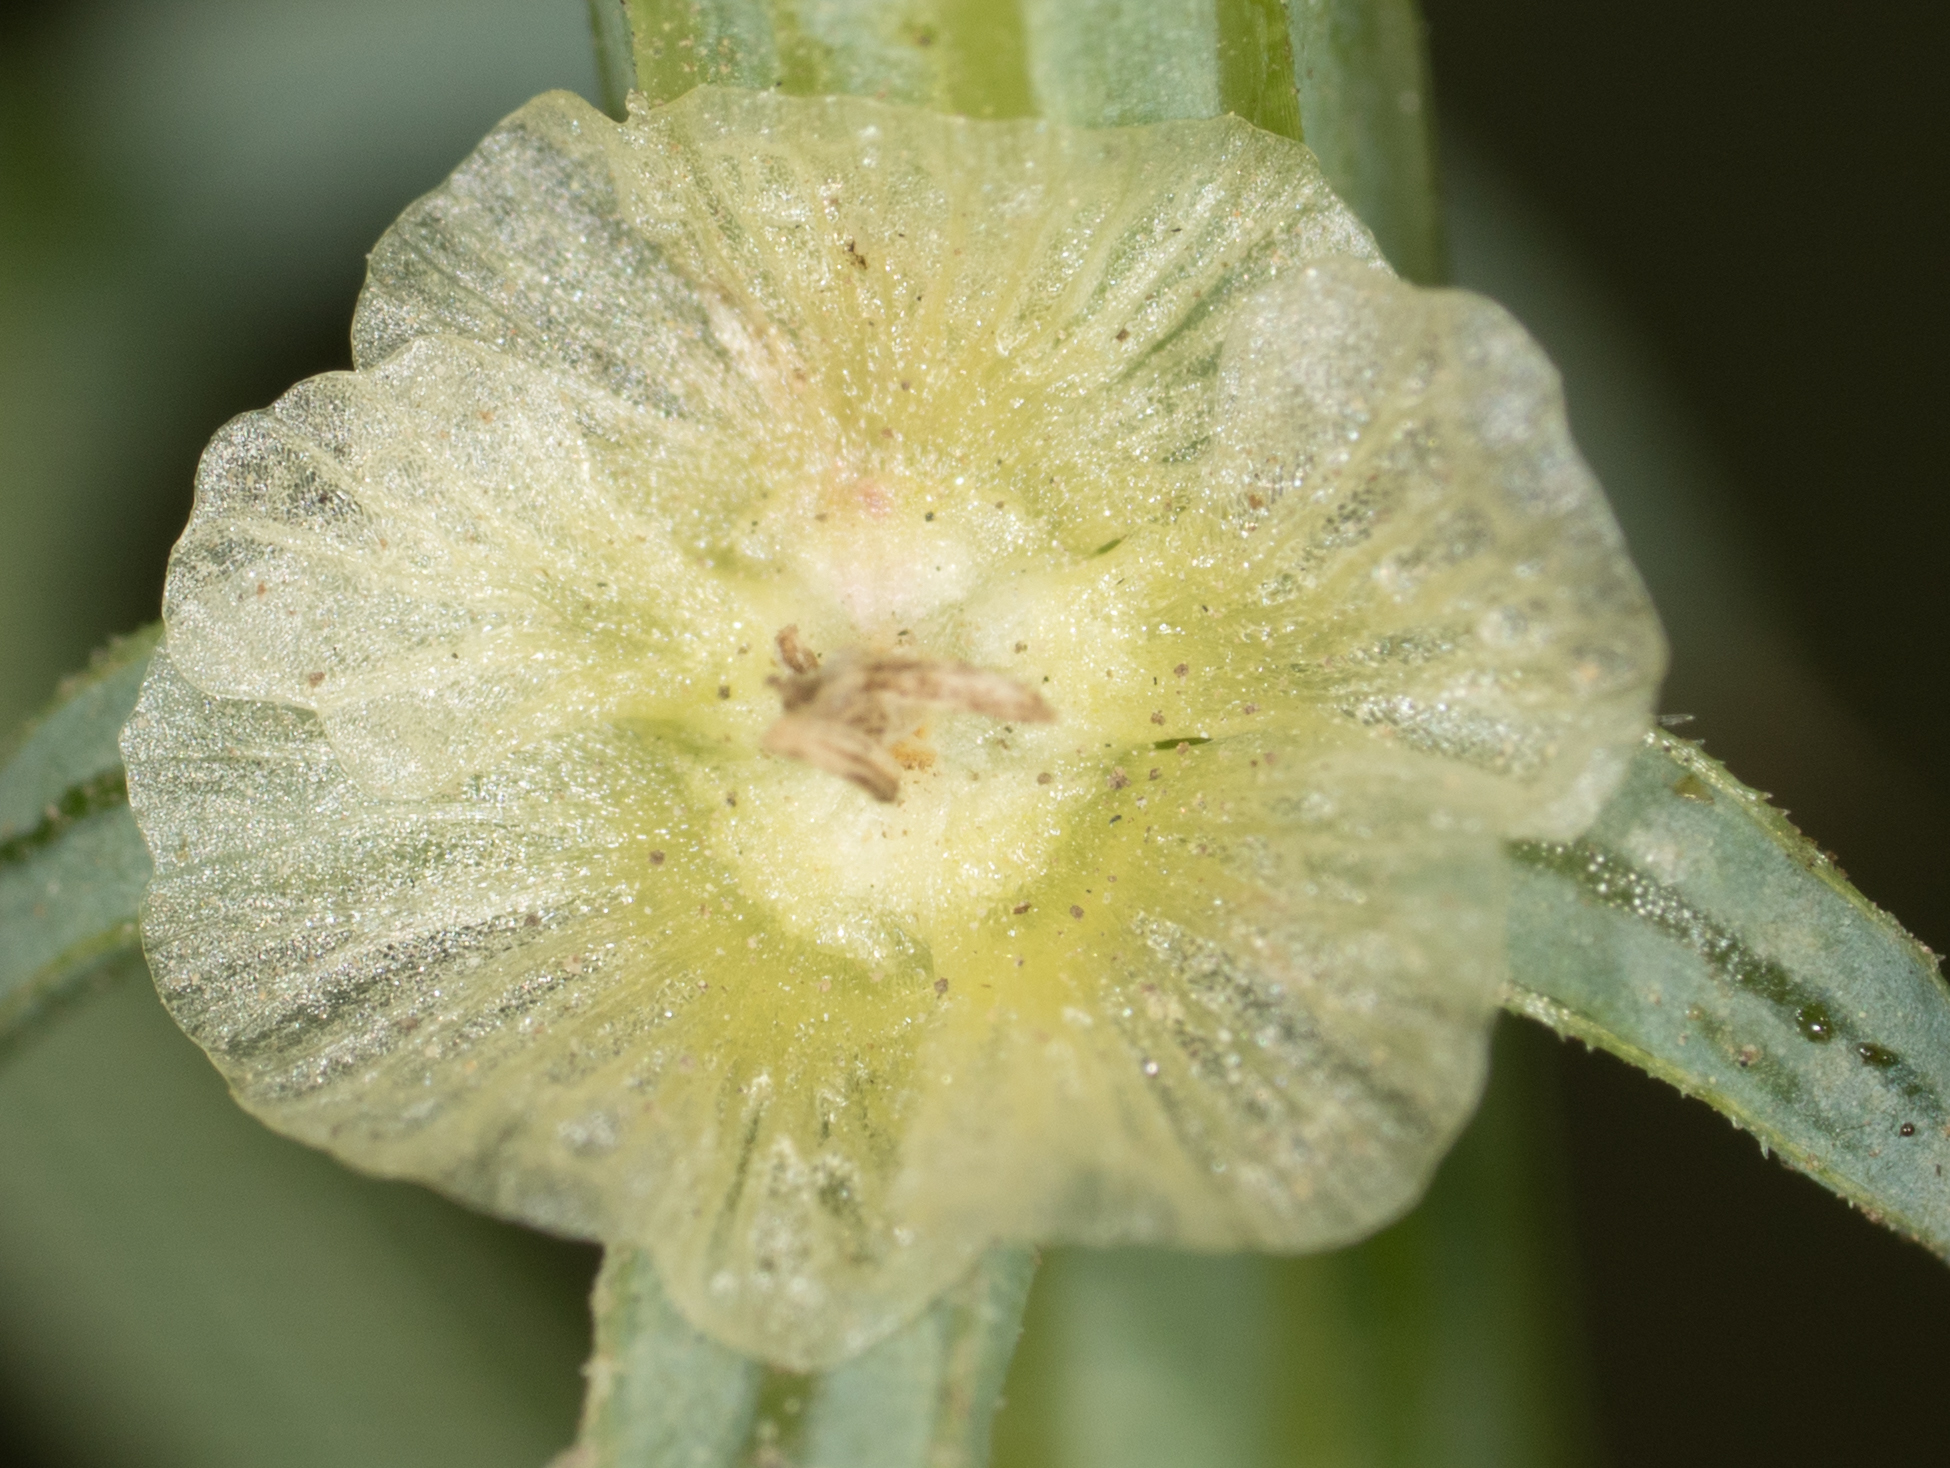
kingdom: Plantae
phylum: Tracheophyta
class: Magnoliopsida
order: Caryophyllales
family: Amaranthaceae
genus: Salsola
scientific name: Salsola australis
